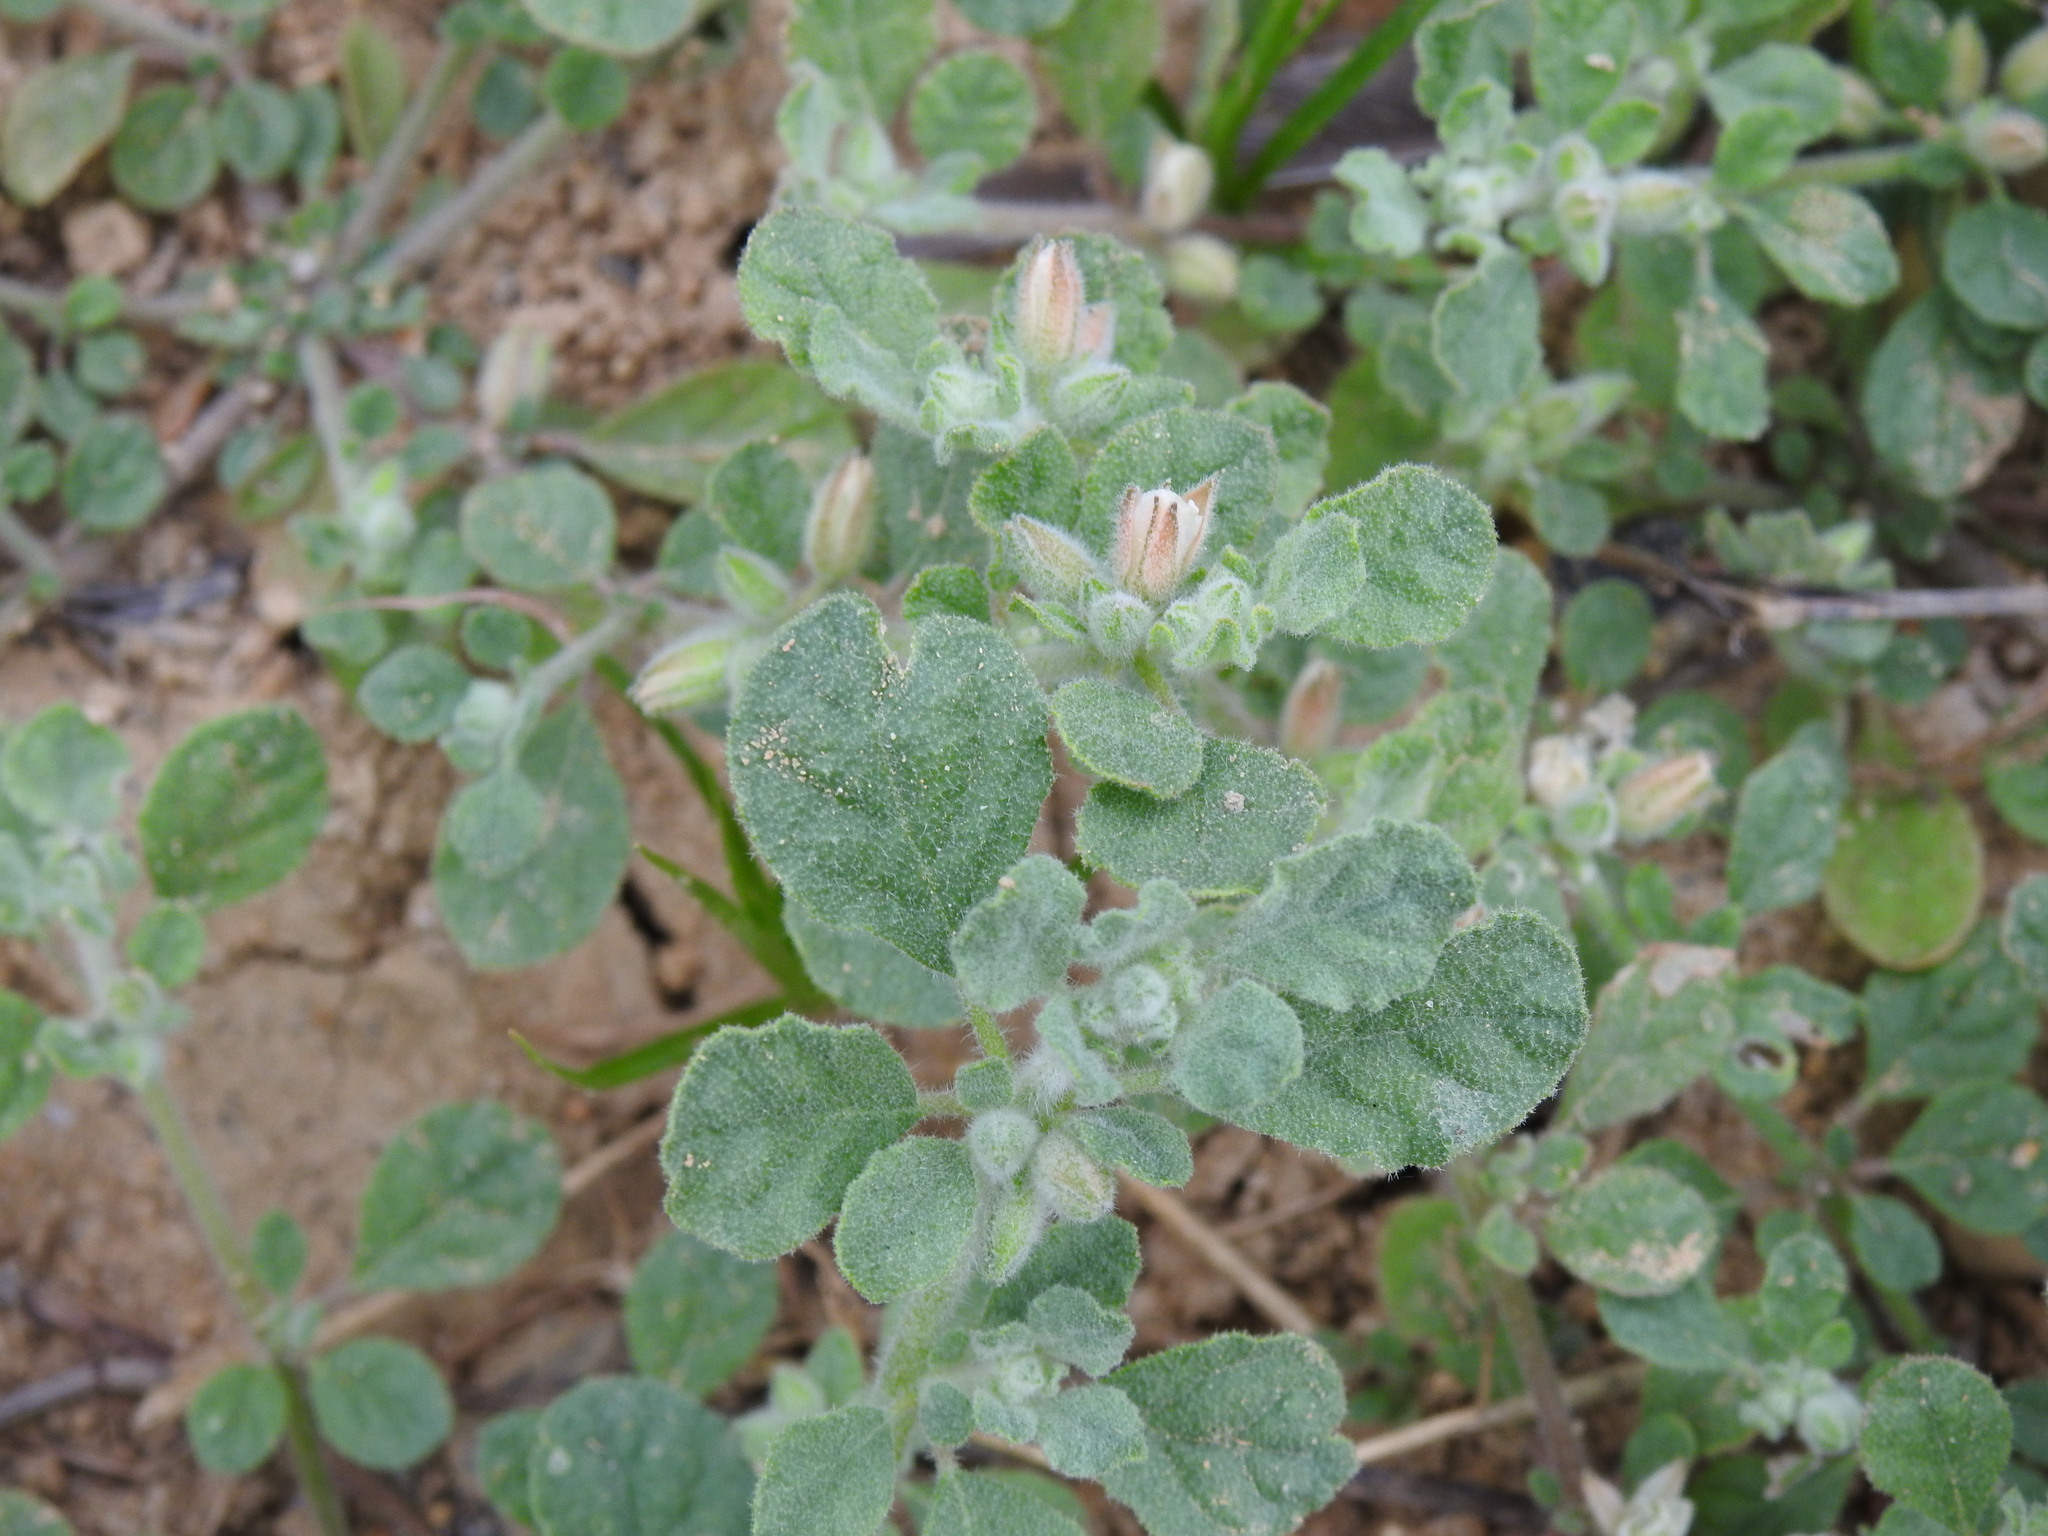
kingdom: Plantae
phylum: Tracheophyta
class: Magnoliopsida
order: Caryophyllales
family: Molluginaceae
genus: Glinus
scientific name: Glinus lotoides
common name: Lotus sweetjuice
